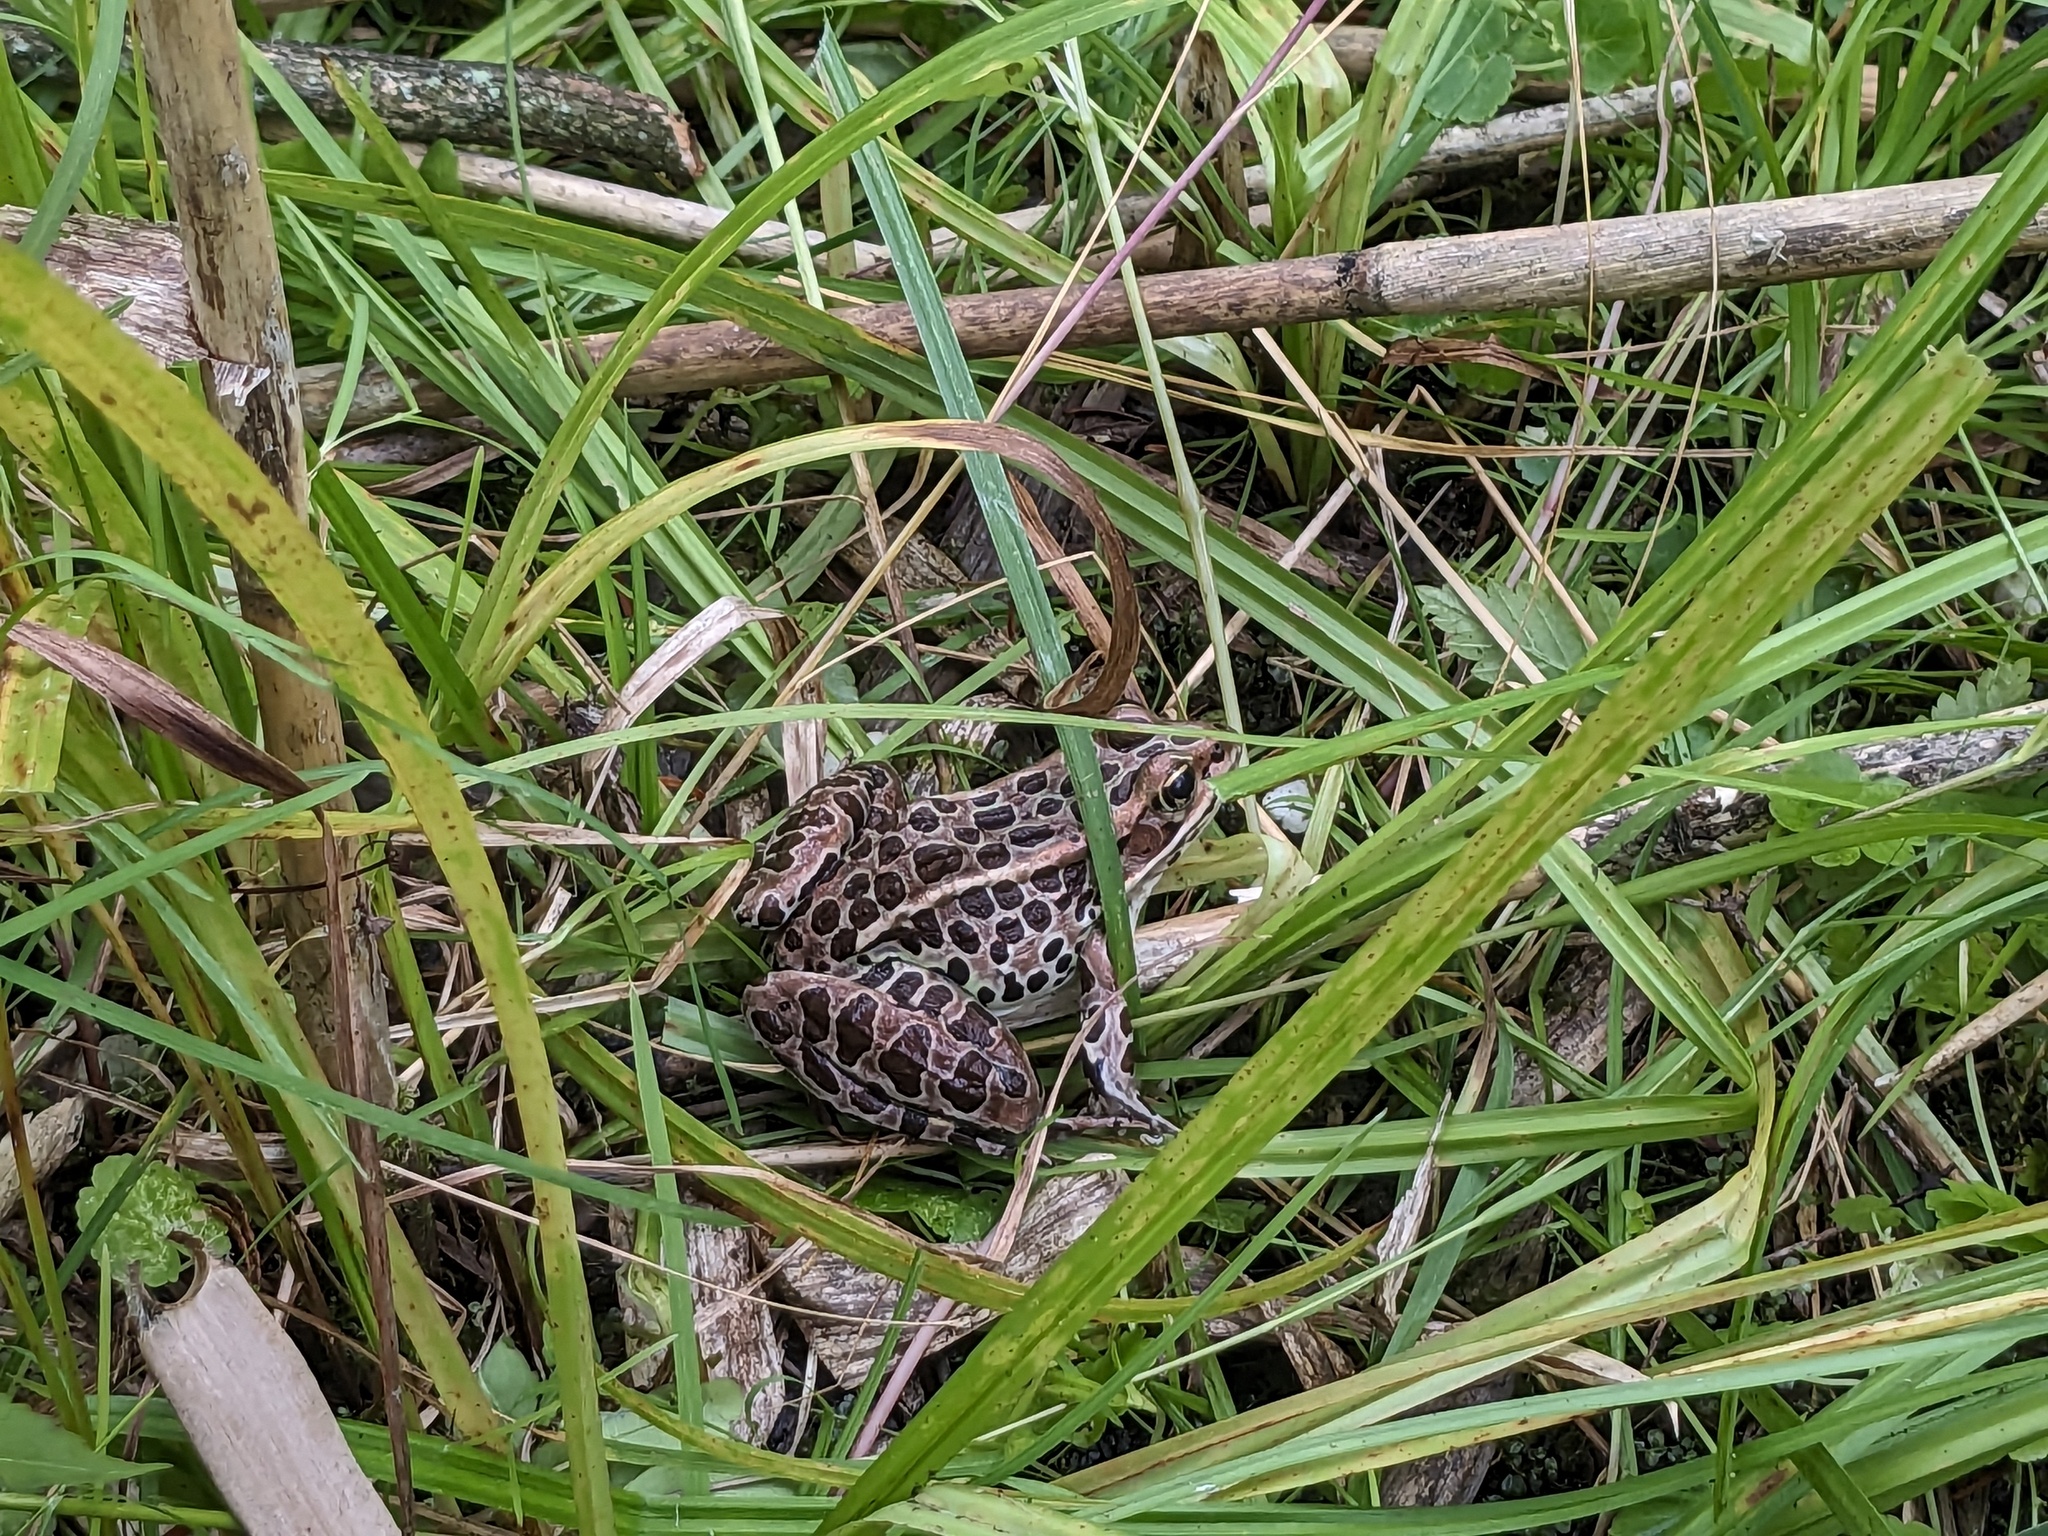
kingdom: Animalia
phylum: Chordata
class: Amphibia
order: Anura
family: Ranidae
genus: Lithobates
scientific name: Lithobates pipiens
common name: Northern leopard frog
